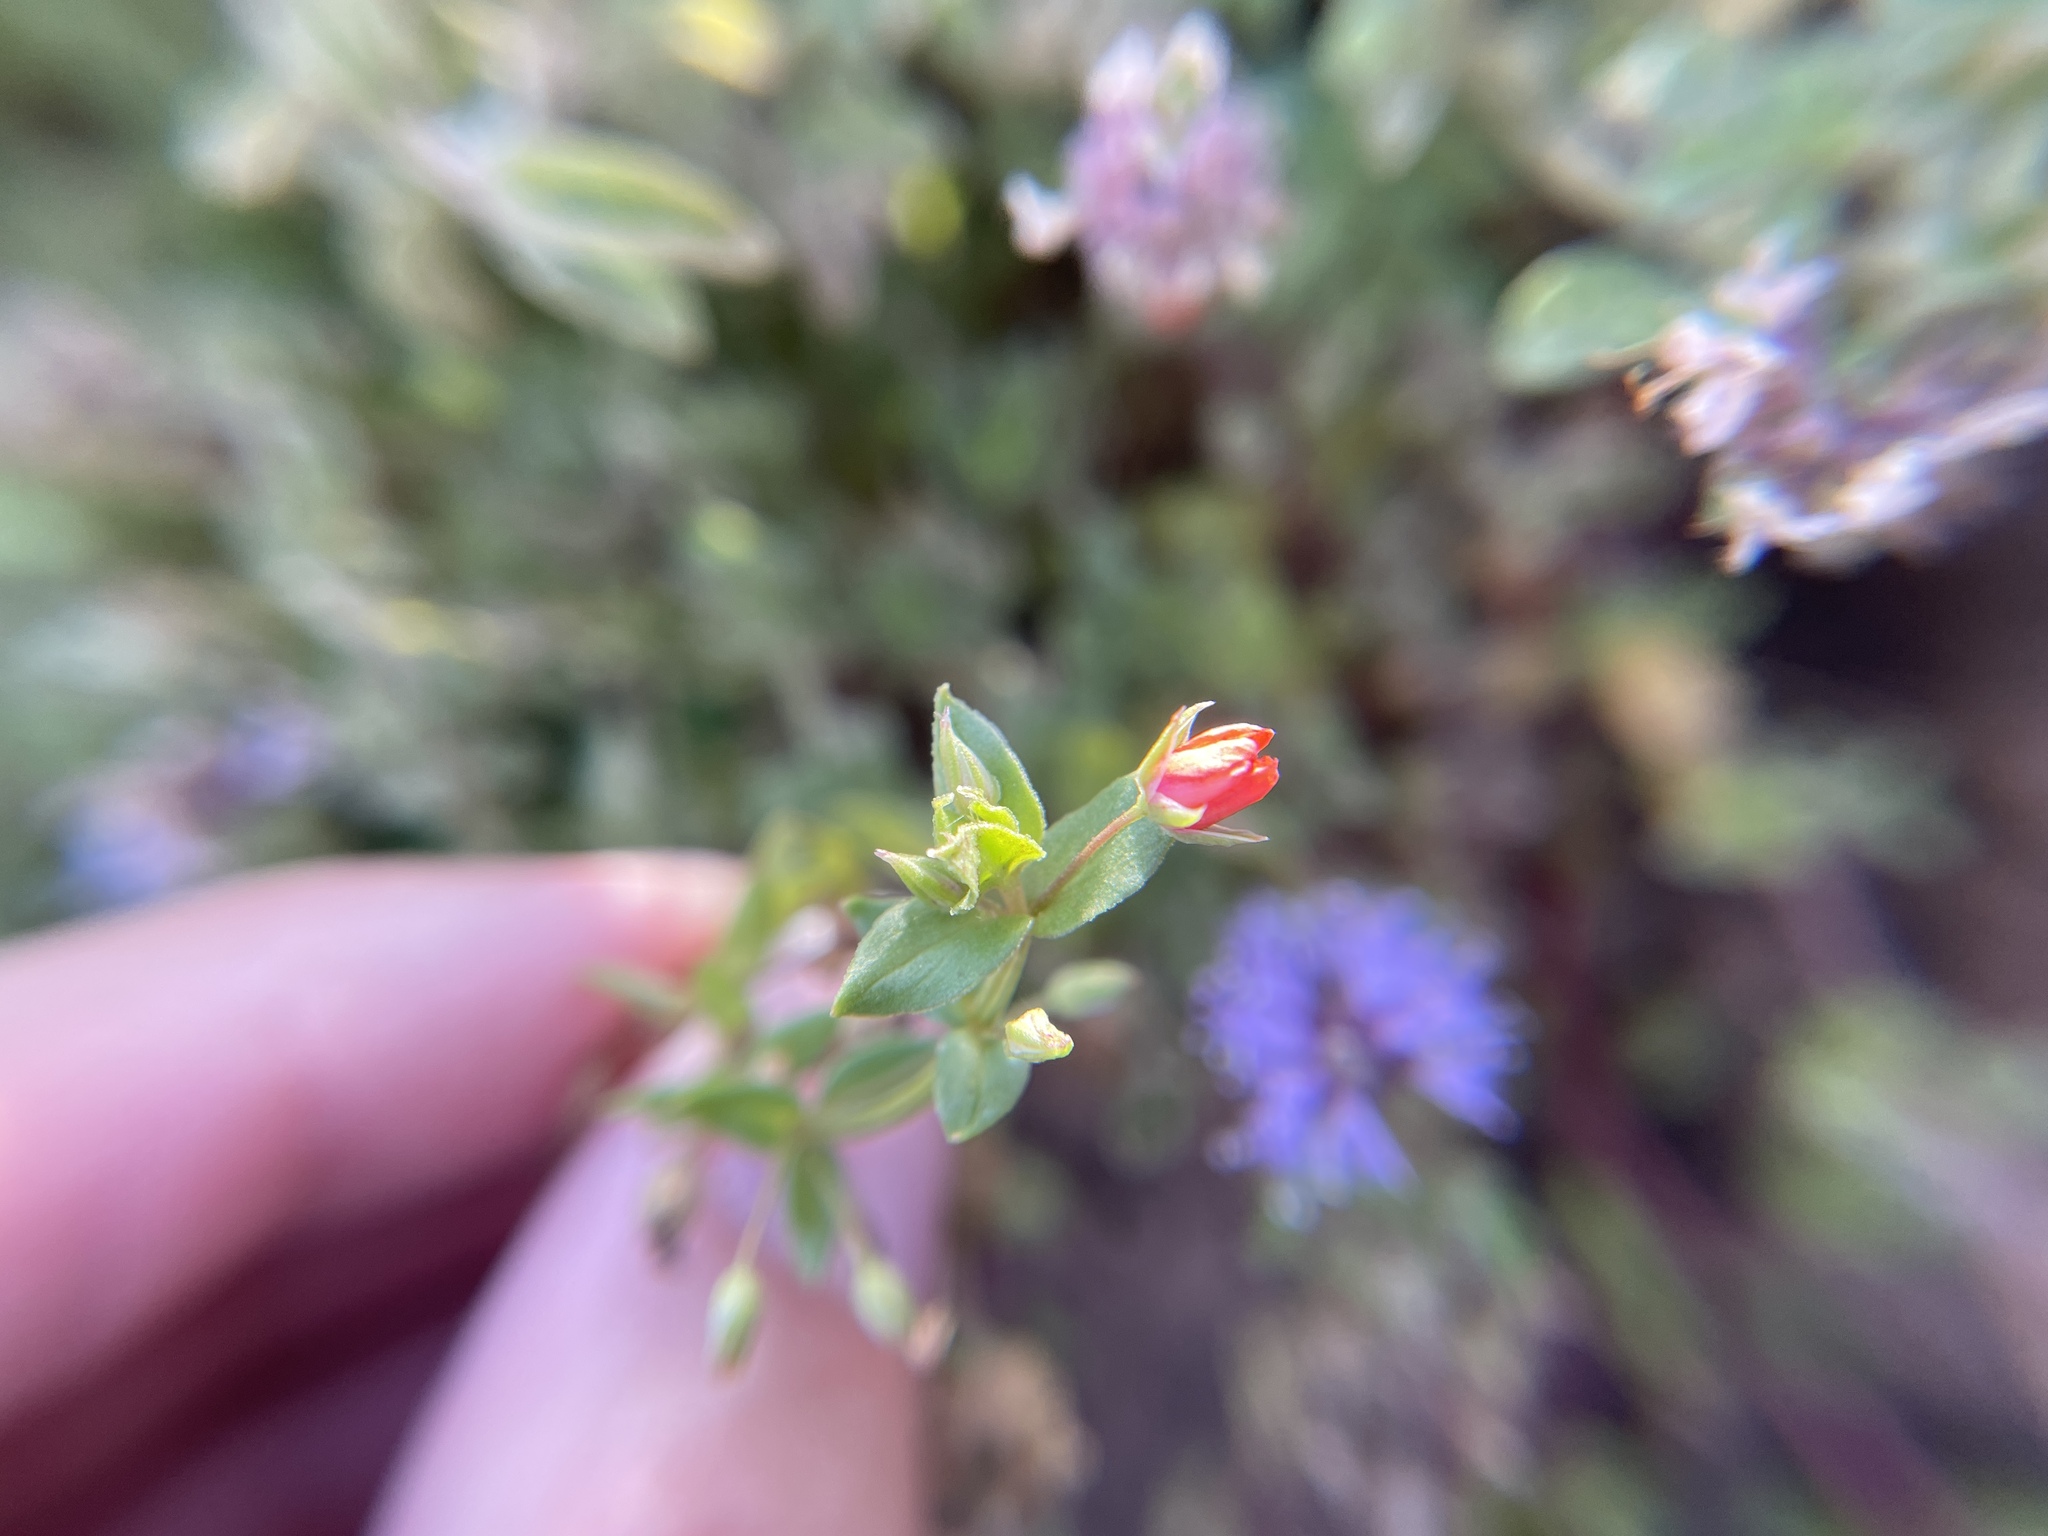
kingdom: Plantae
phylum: Tracheophyta
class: Magnoliopsida
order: Ericales
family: Primulaceae
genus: Lysimachia
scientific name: Lysimachia arvensis
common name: Scarlet pimpernel
